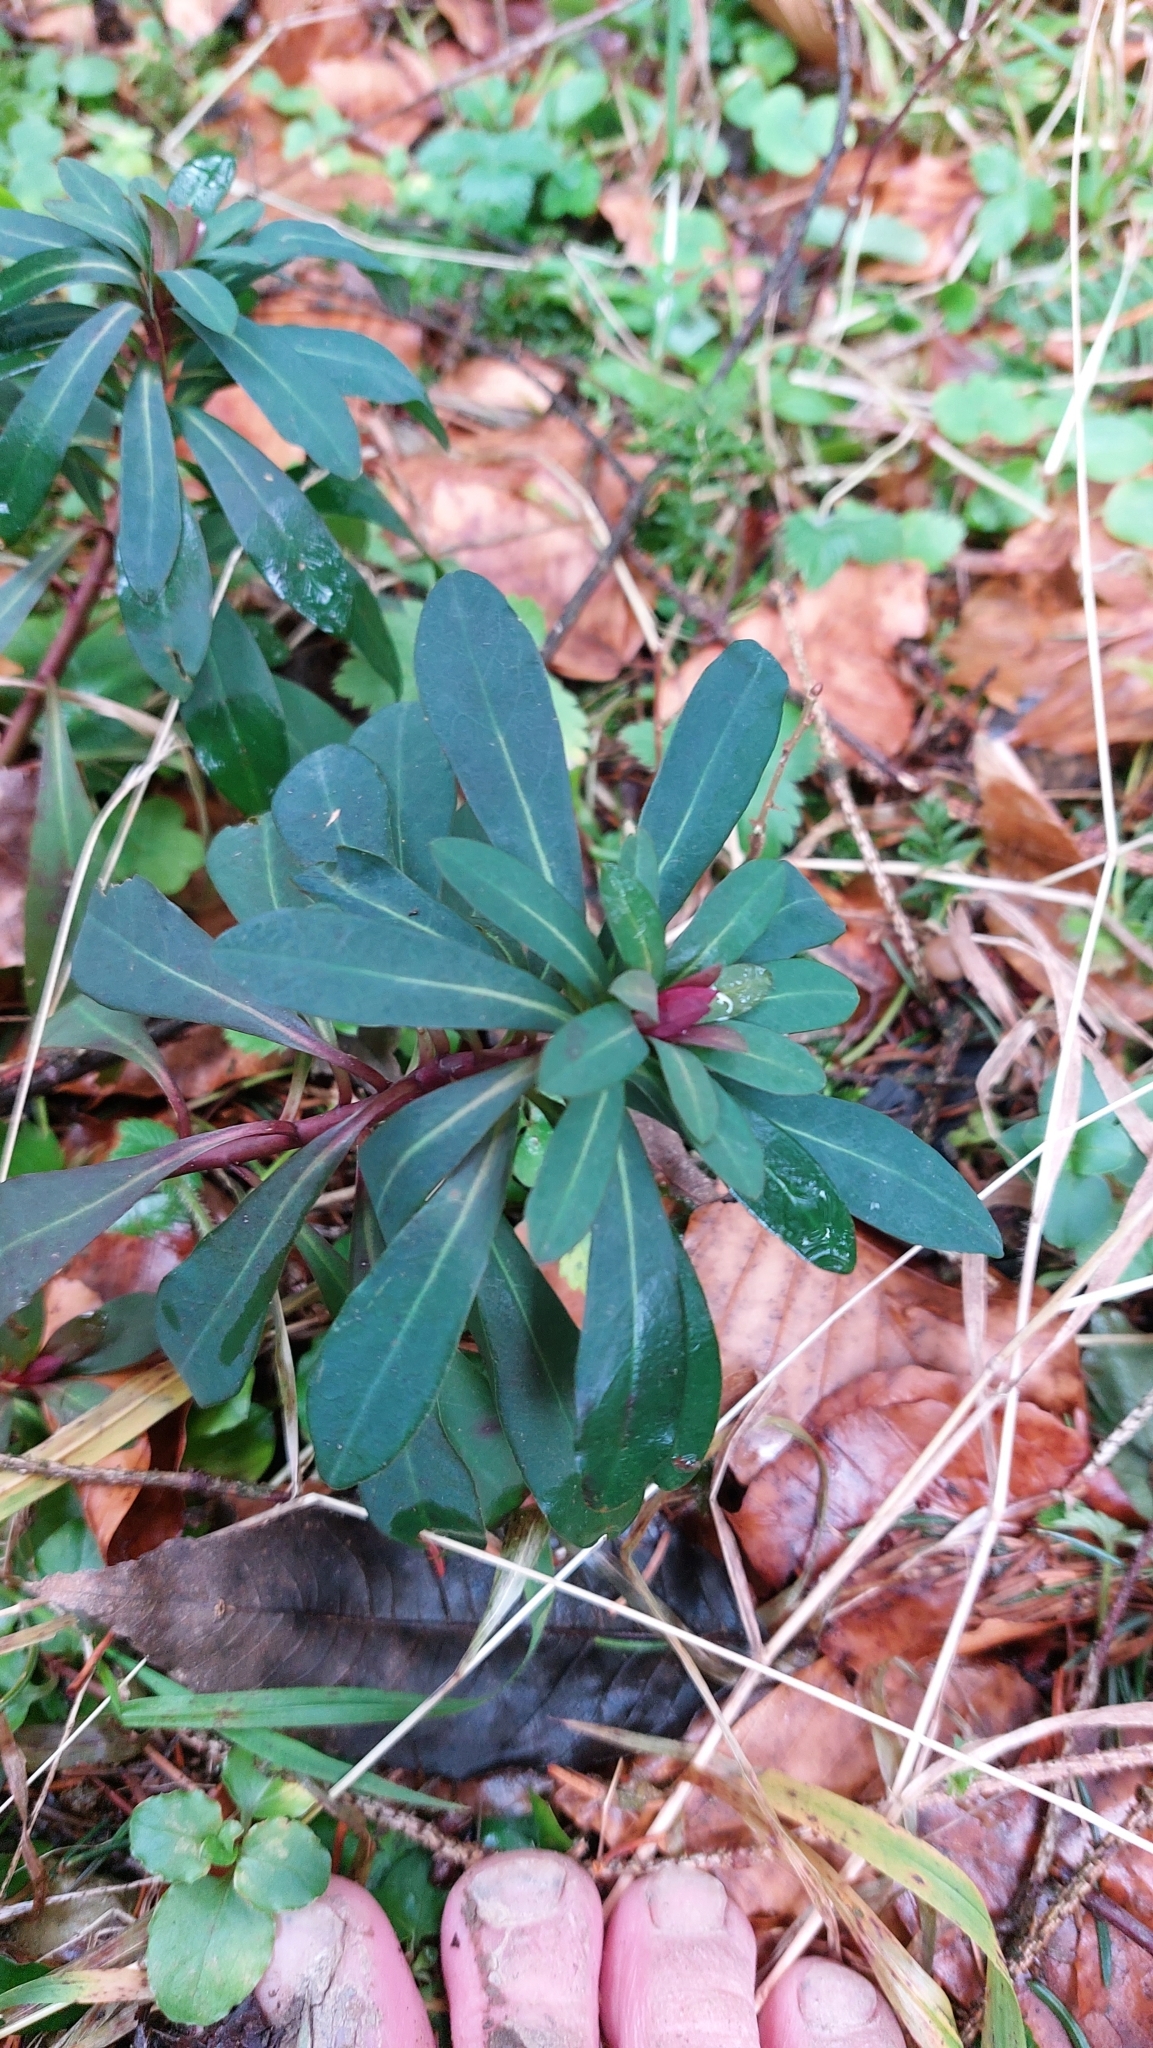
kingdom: Plantae
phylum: Tracheophyta
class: Magnoliopsida
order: Malpighiales
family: Euphorbiaceae
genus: Euphorbia
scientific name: Euphorbia amygdaloides
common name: Wood spurge
